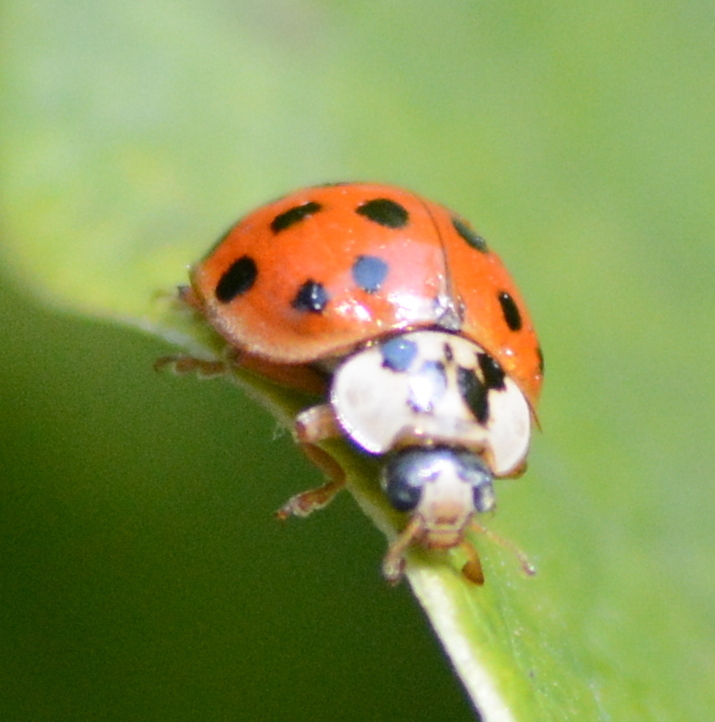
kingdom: Animalia
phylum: Arthropoda
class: Insecta
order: Coleoptera
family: Coccinellidae
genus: Harmonia
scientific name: Harmonia axyridis
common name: Harlequin ladybird
